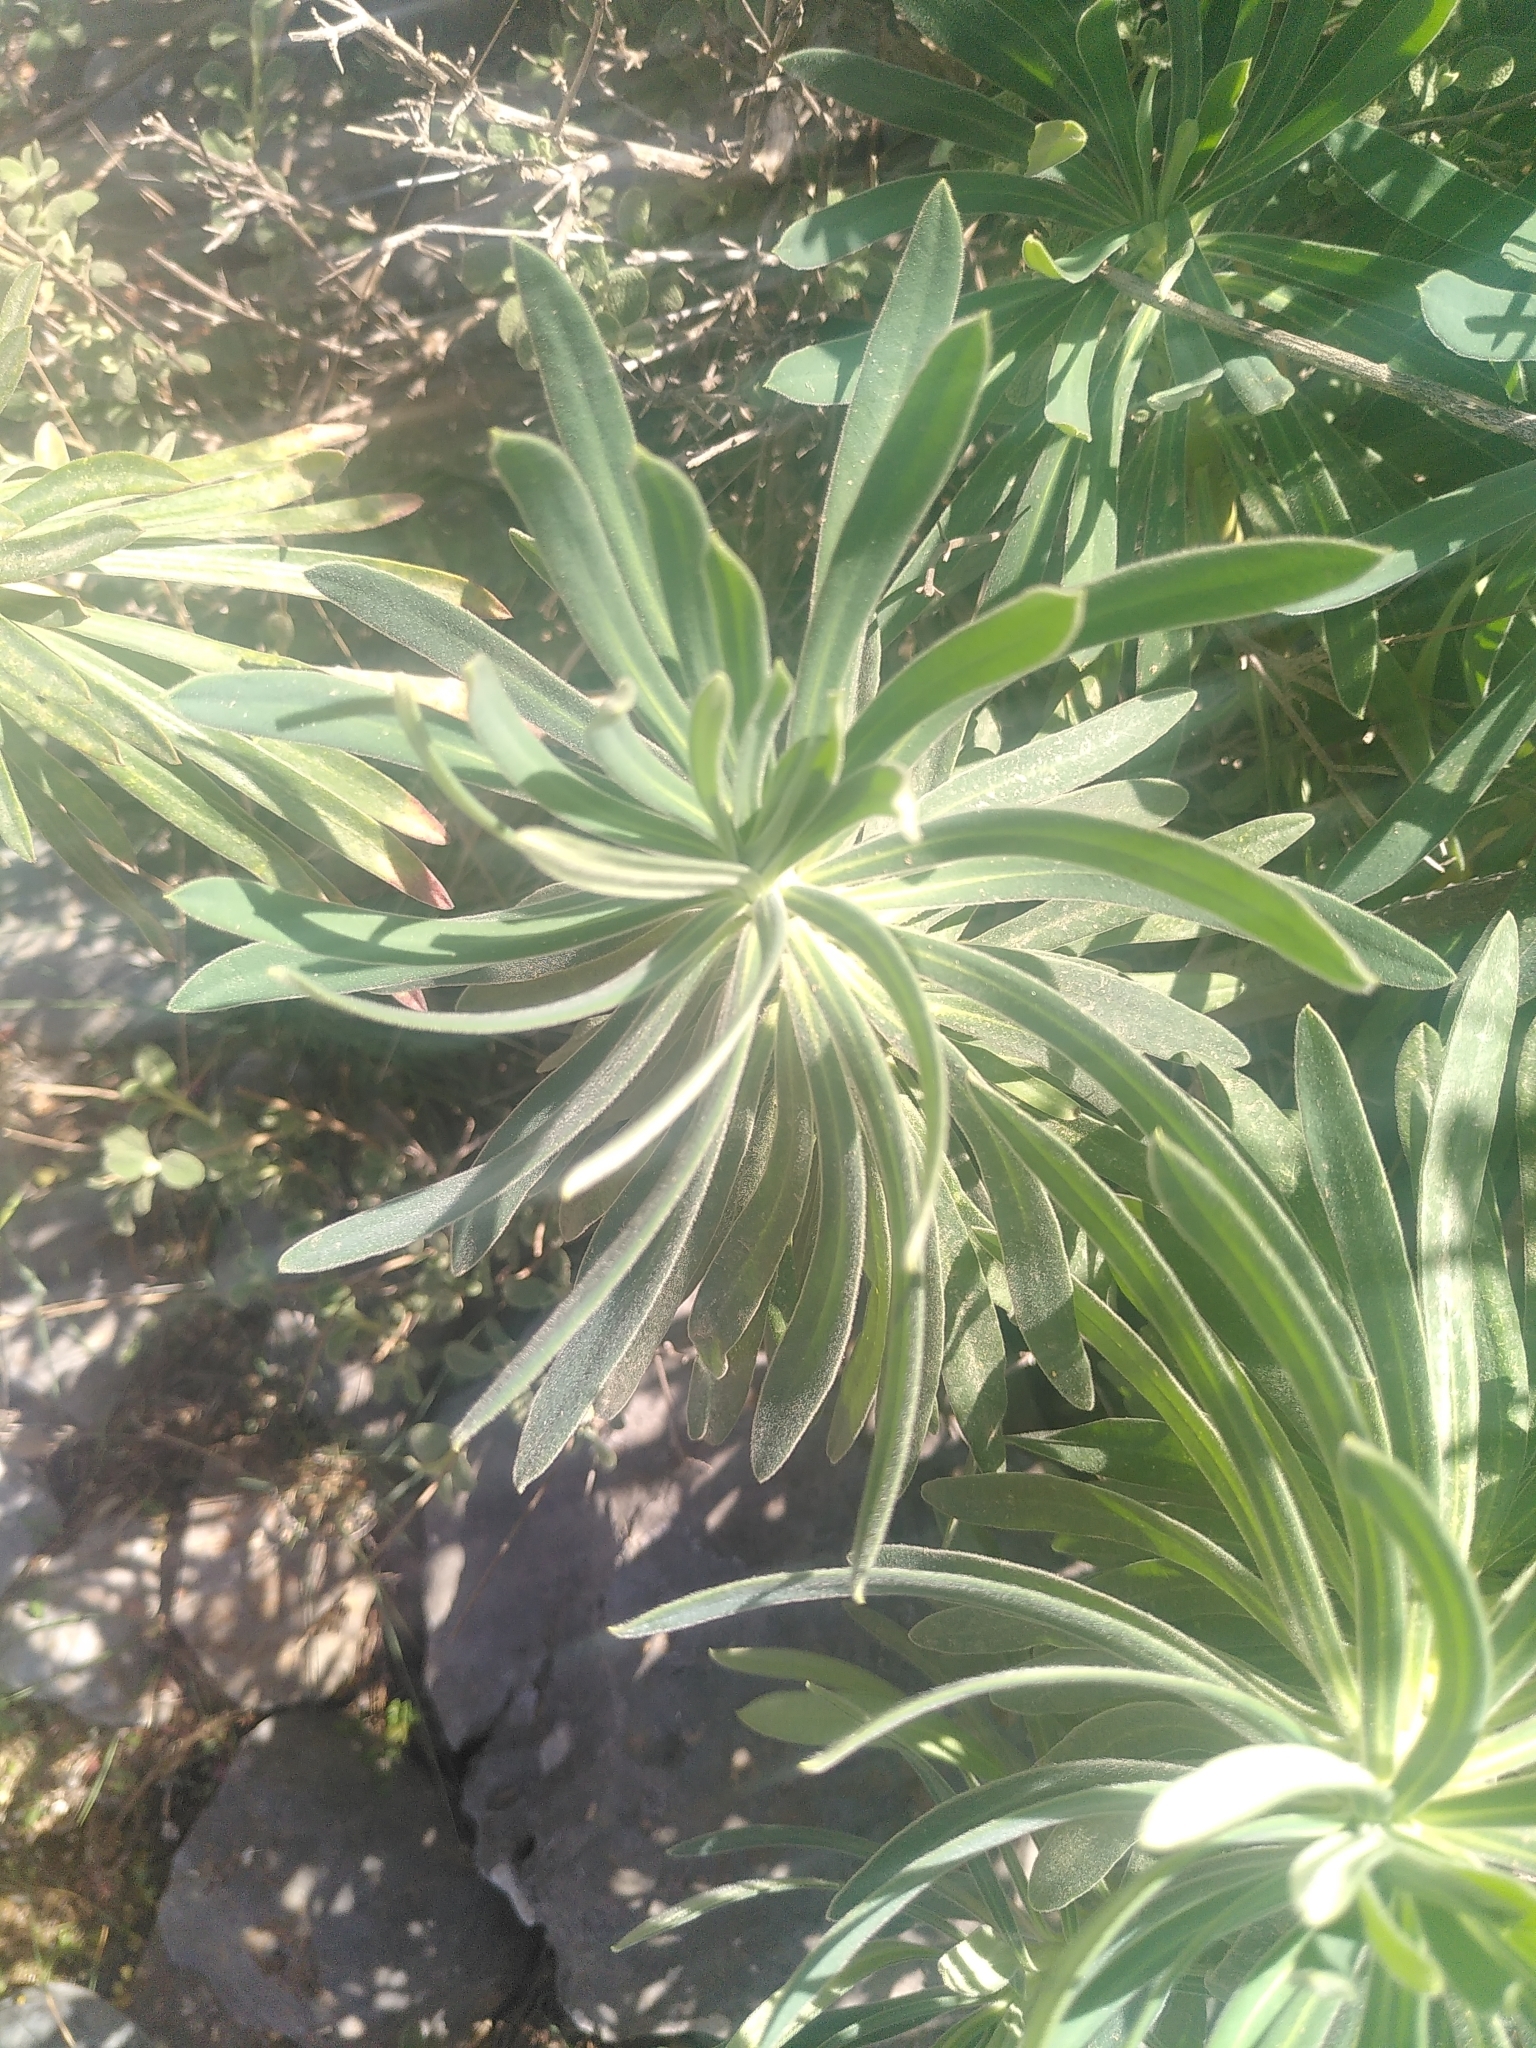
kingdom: Plantae
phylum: Tracheophyta
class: Magnoliopsida
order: Malpighiales
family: Euphorbiaceae
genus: Euphorbia
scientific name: Euphorbia characias
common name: Mediterranean spurge
